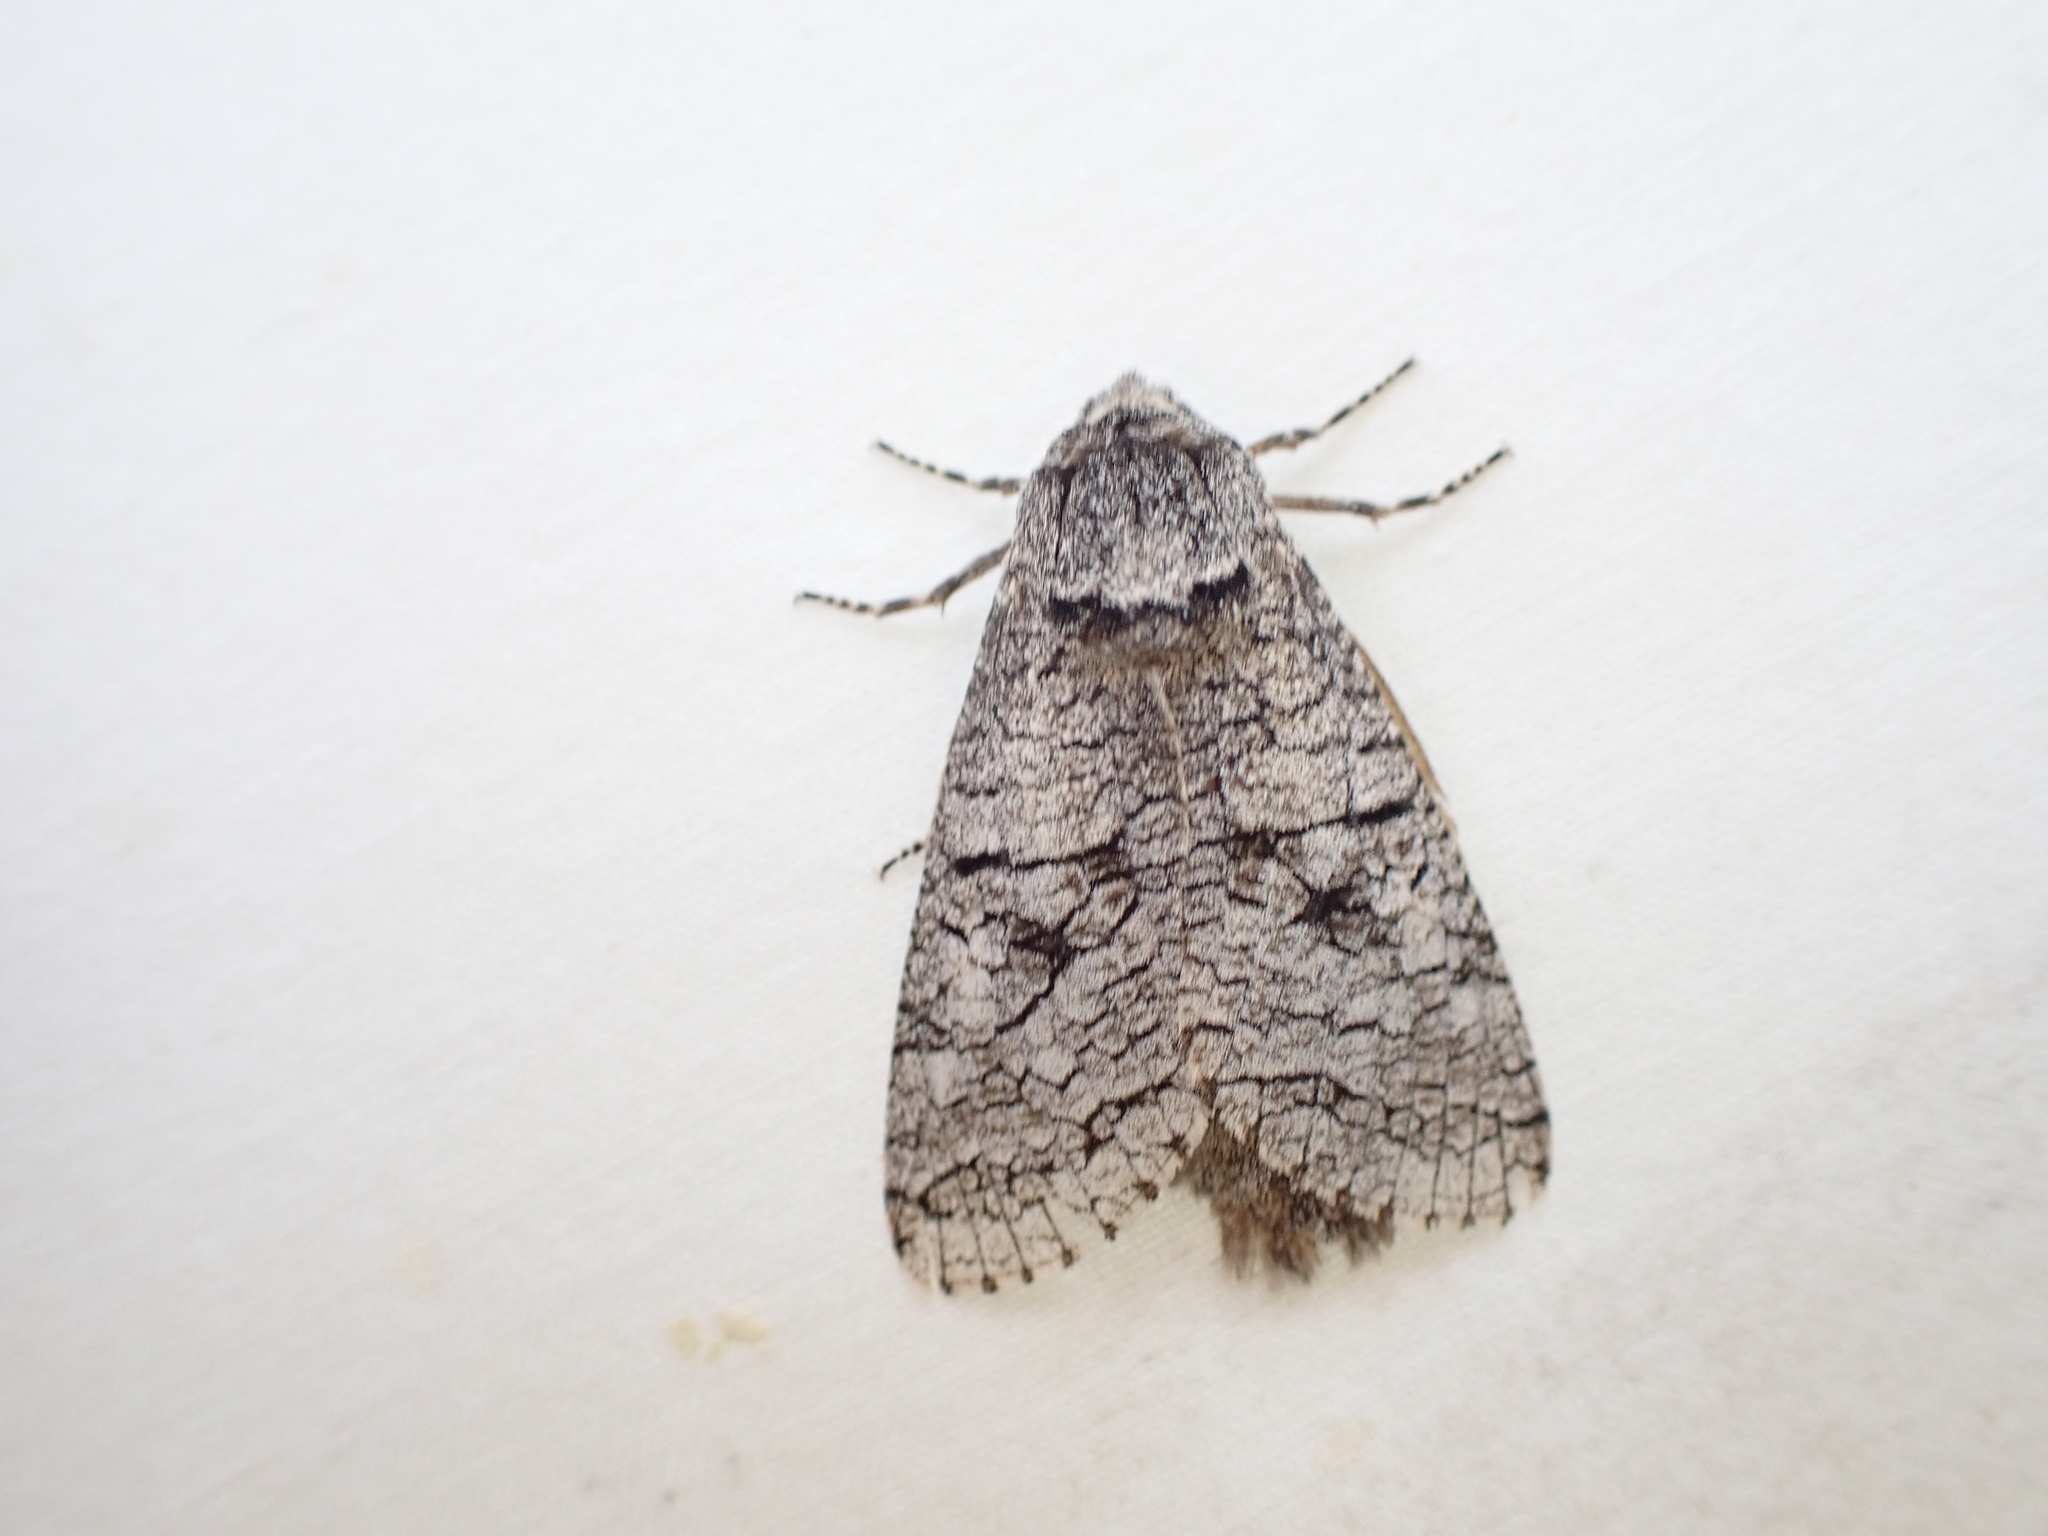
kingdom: Animalia
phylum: Arthropoda
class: Insecta
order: Lepidoptera
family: Cossidae
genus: Acossus
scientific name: Acossus populi
